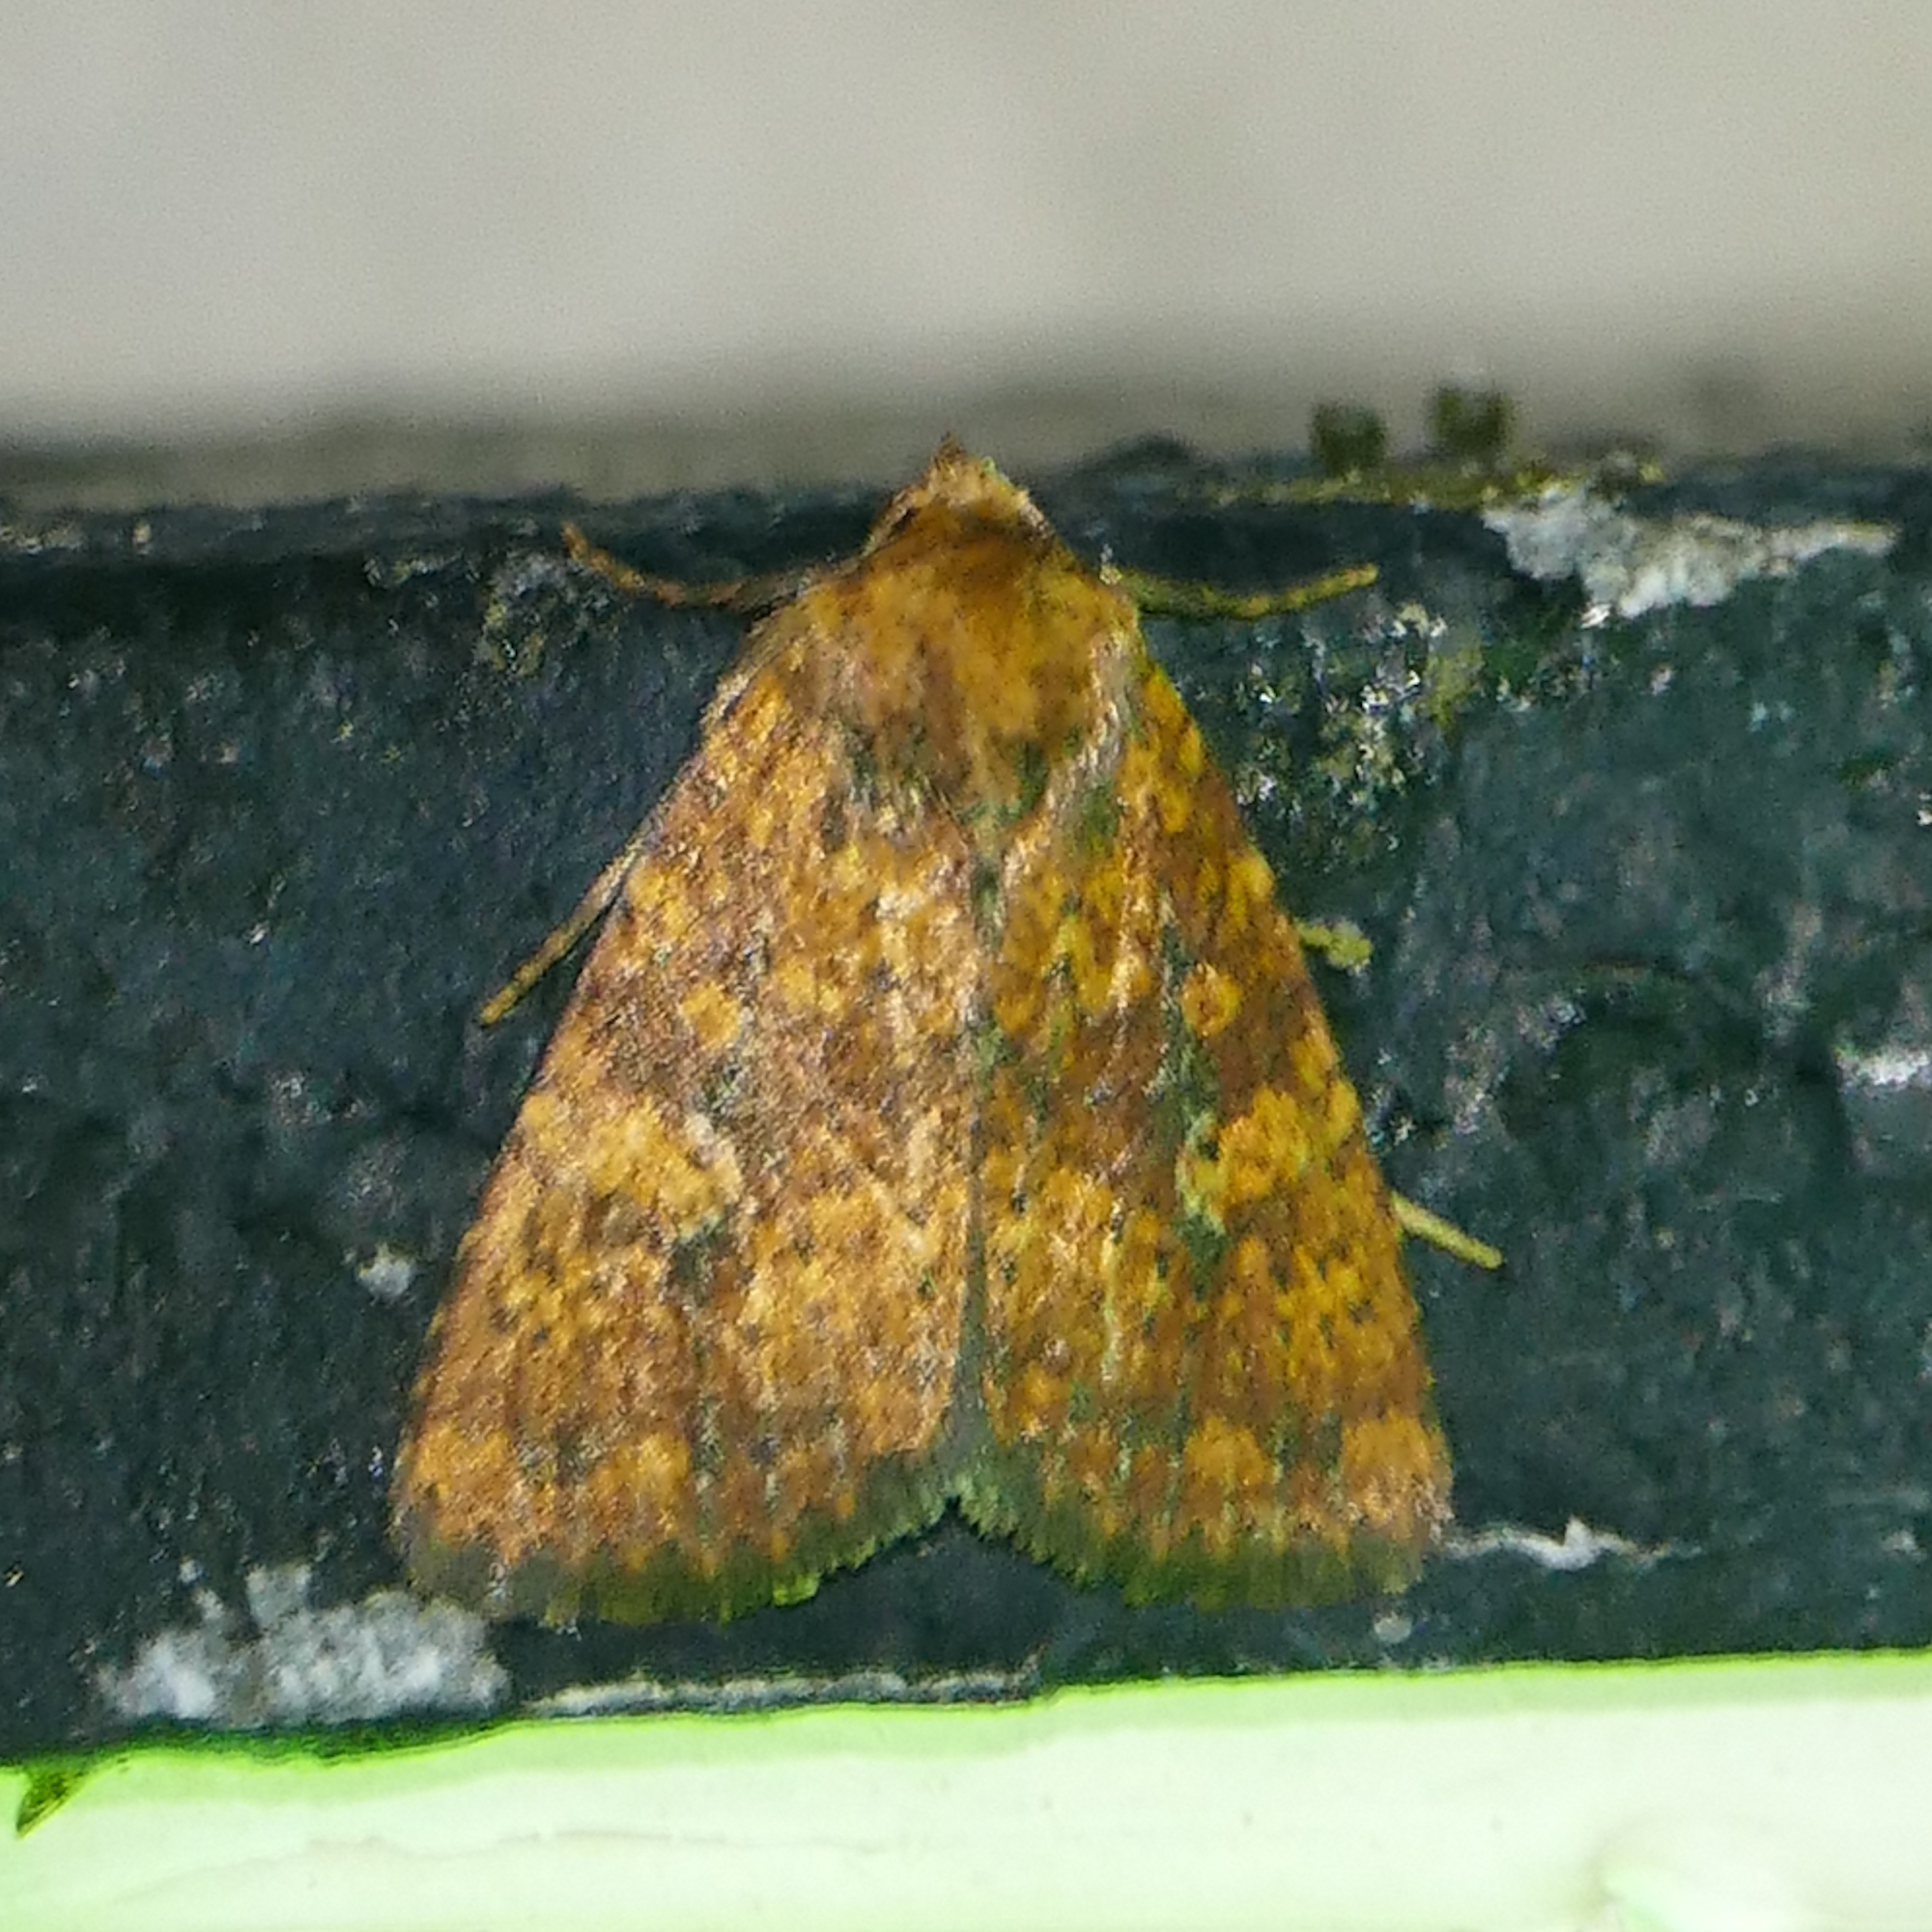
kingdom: Animalia
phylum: Arthropoda
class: Insecta
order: Lepidoptera
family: Noctuidae
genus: Perigea
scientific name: Perigea xanthioides
